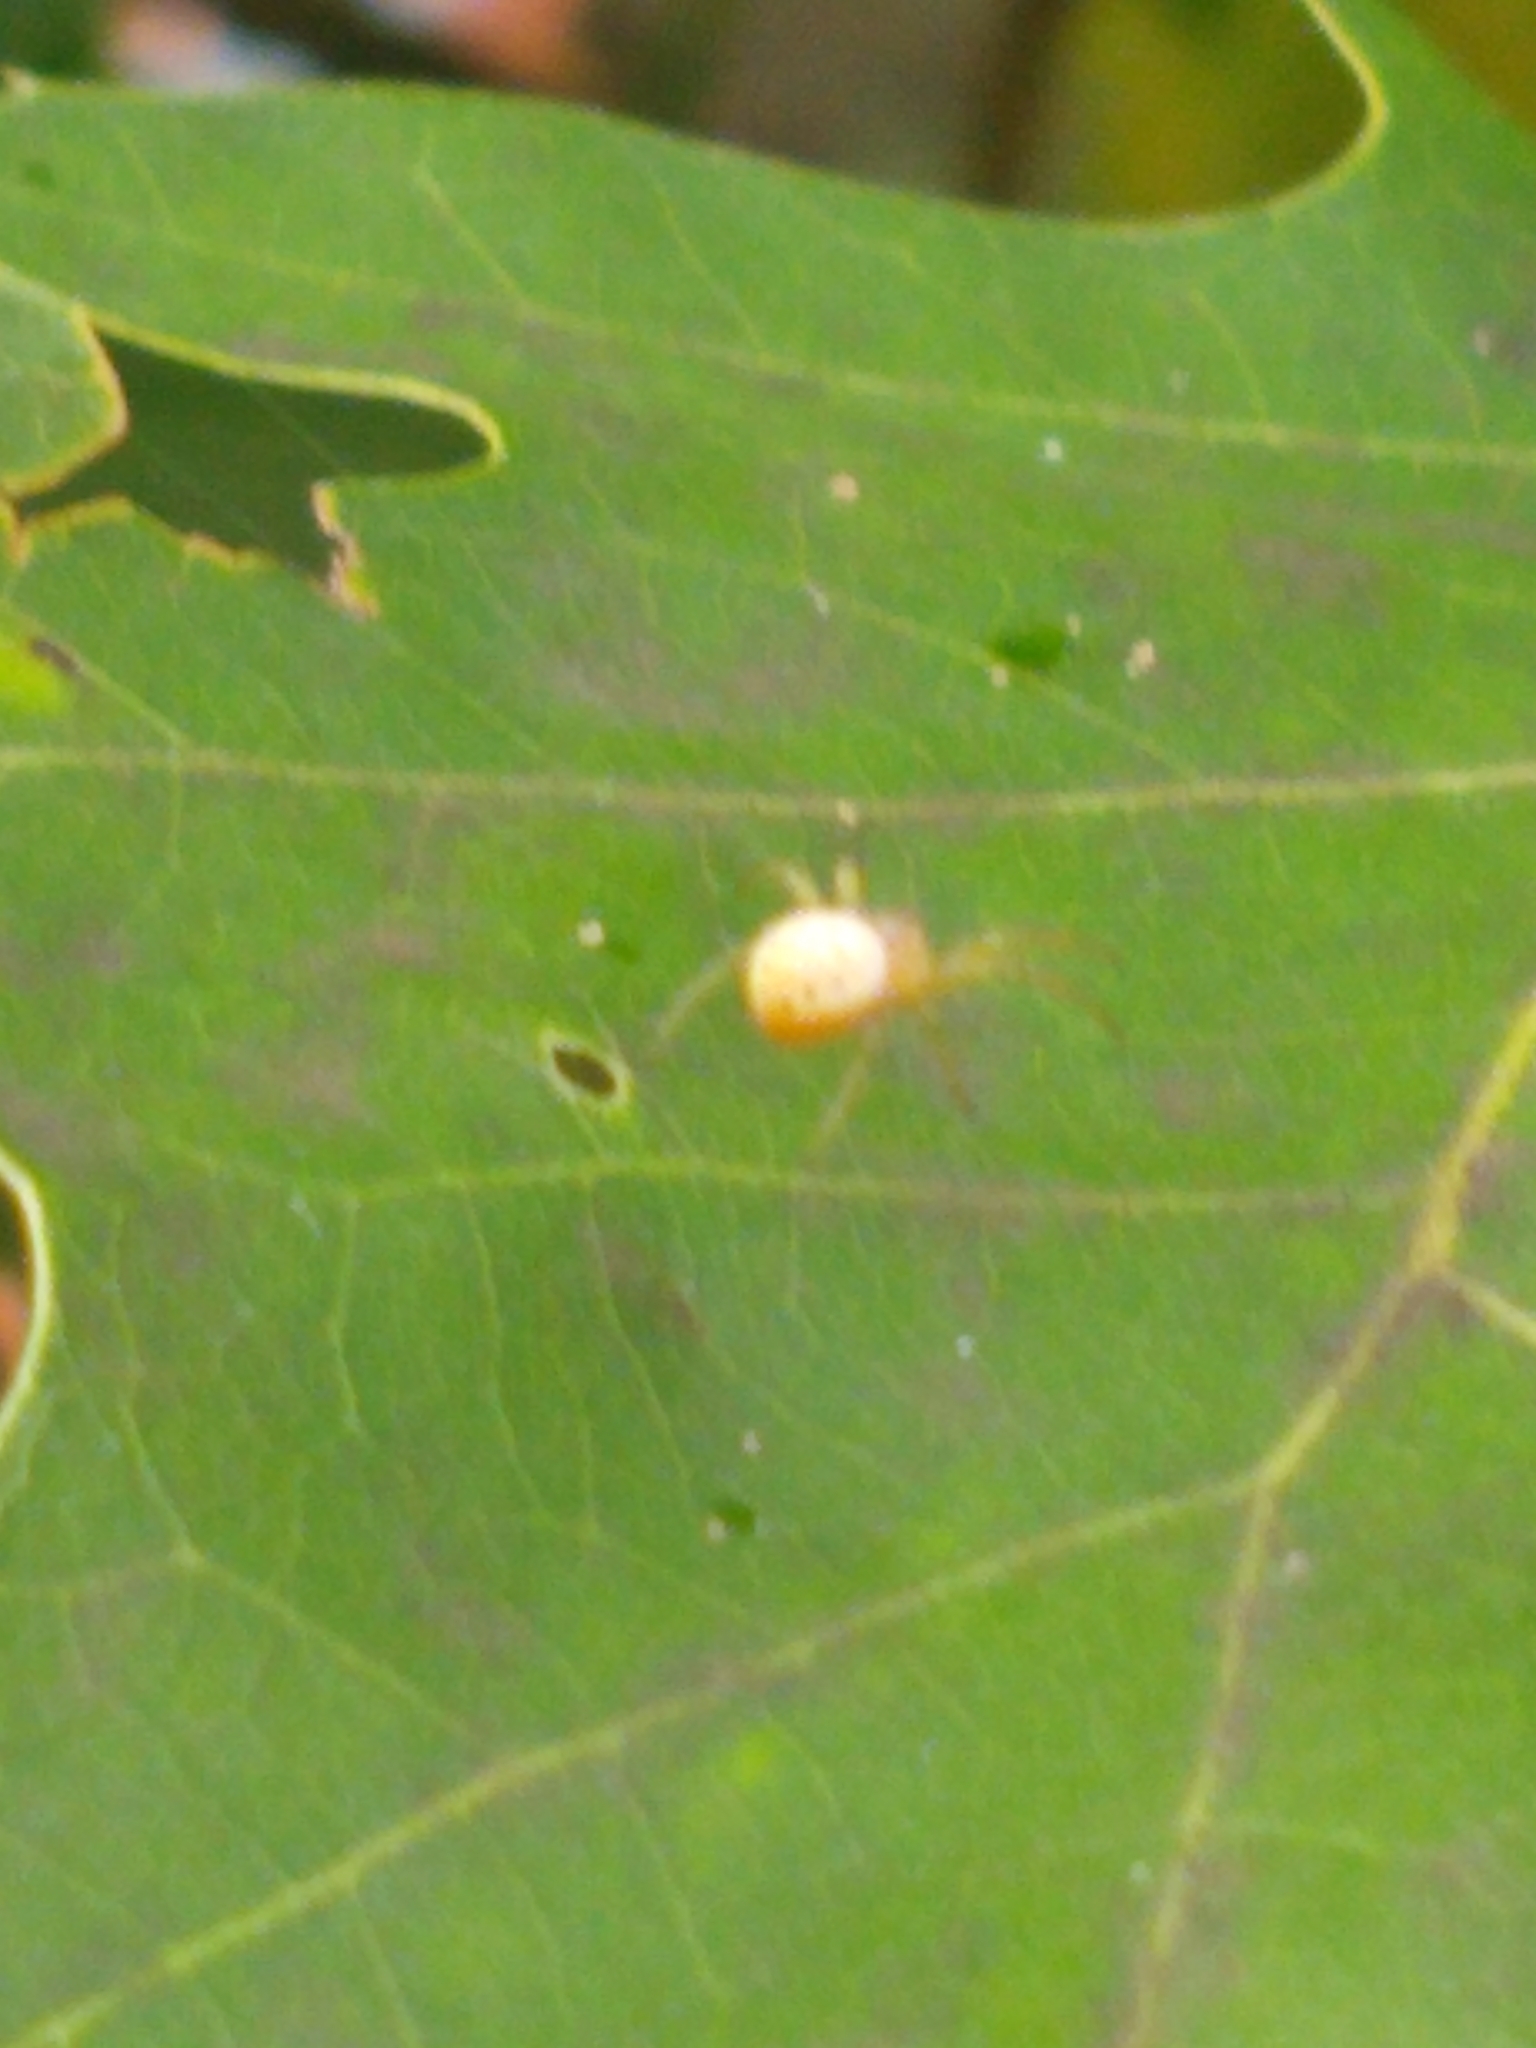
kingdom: Animalia
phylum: Arthropoda
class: Arachnida
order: Araneae
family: Araneidae
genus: Araniella
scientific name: Araniella displicata
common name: Sixspotted orb weaver
